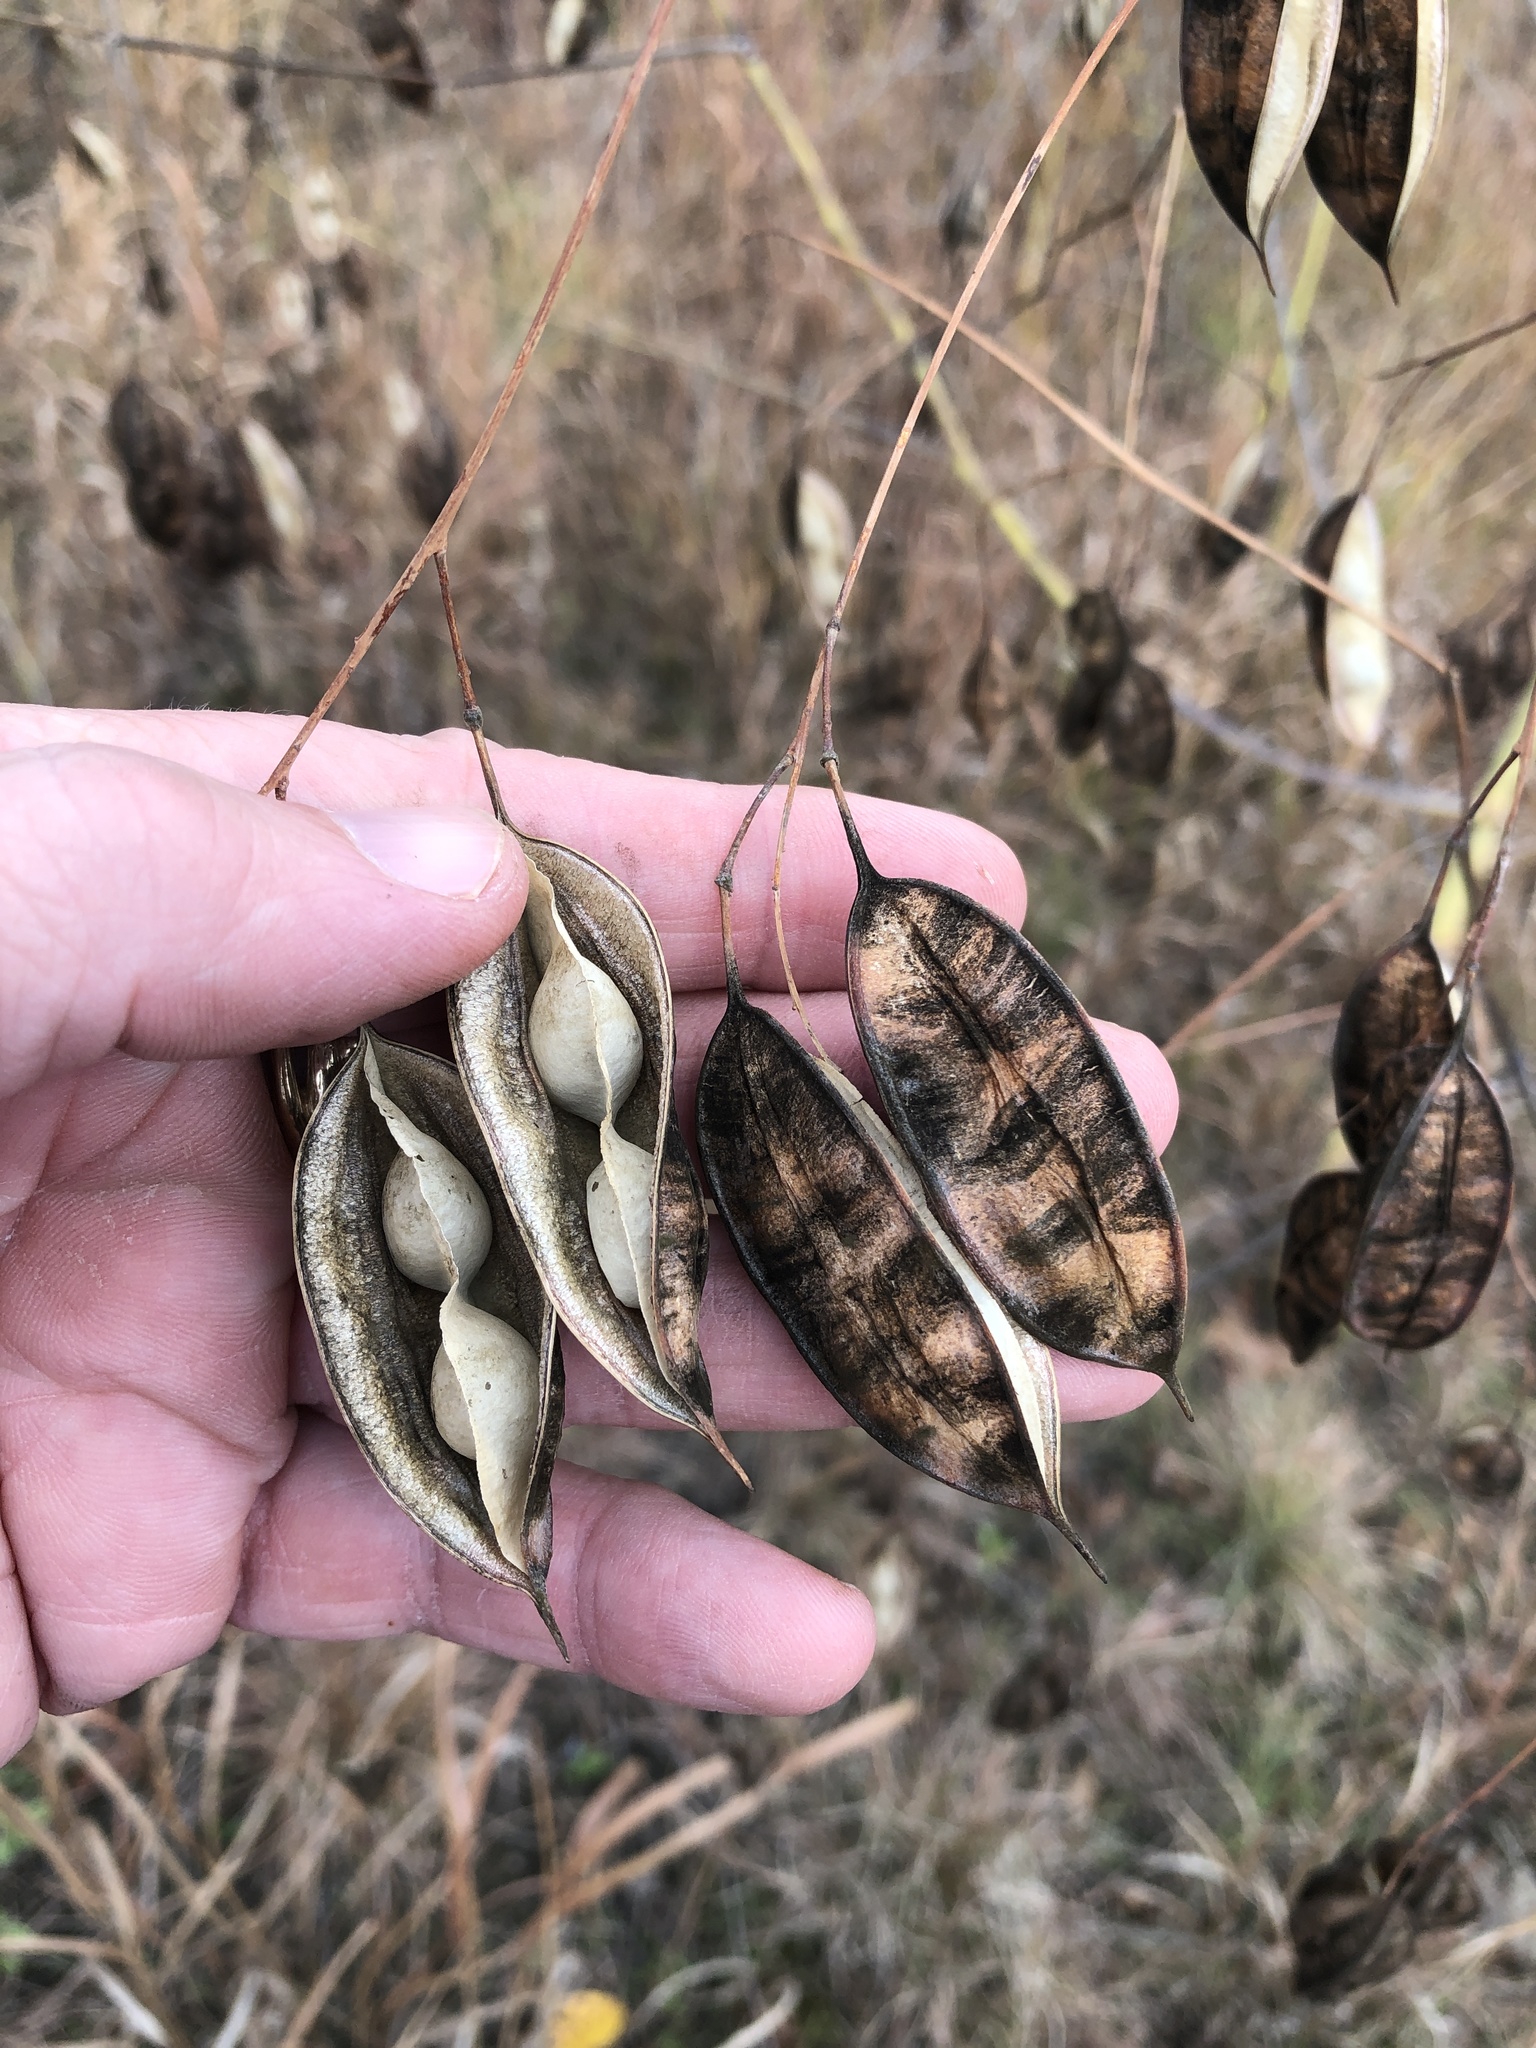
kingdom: Plantae
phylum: Tracheophyta
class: Magnoliopsida
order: Fabales
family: Fabaceae
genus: Sesbania
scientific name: Sesbania vesicaria
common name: Bagpod
